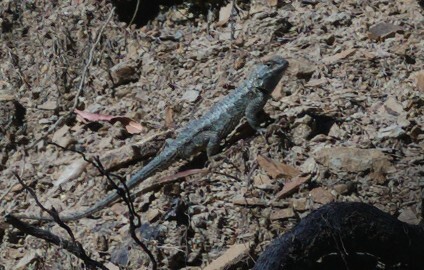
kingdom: Animalia
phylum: Chordata
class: Squamata
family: Phrynosomatidae
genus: Sceloporus
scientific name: Sceloporus occidentalis
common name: Western fence lizard
